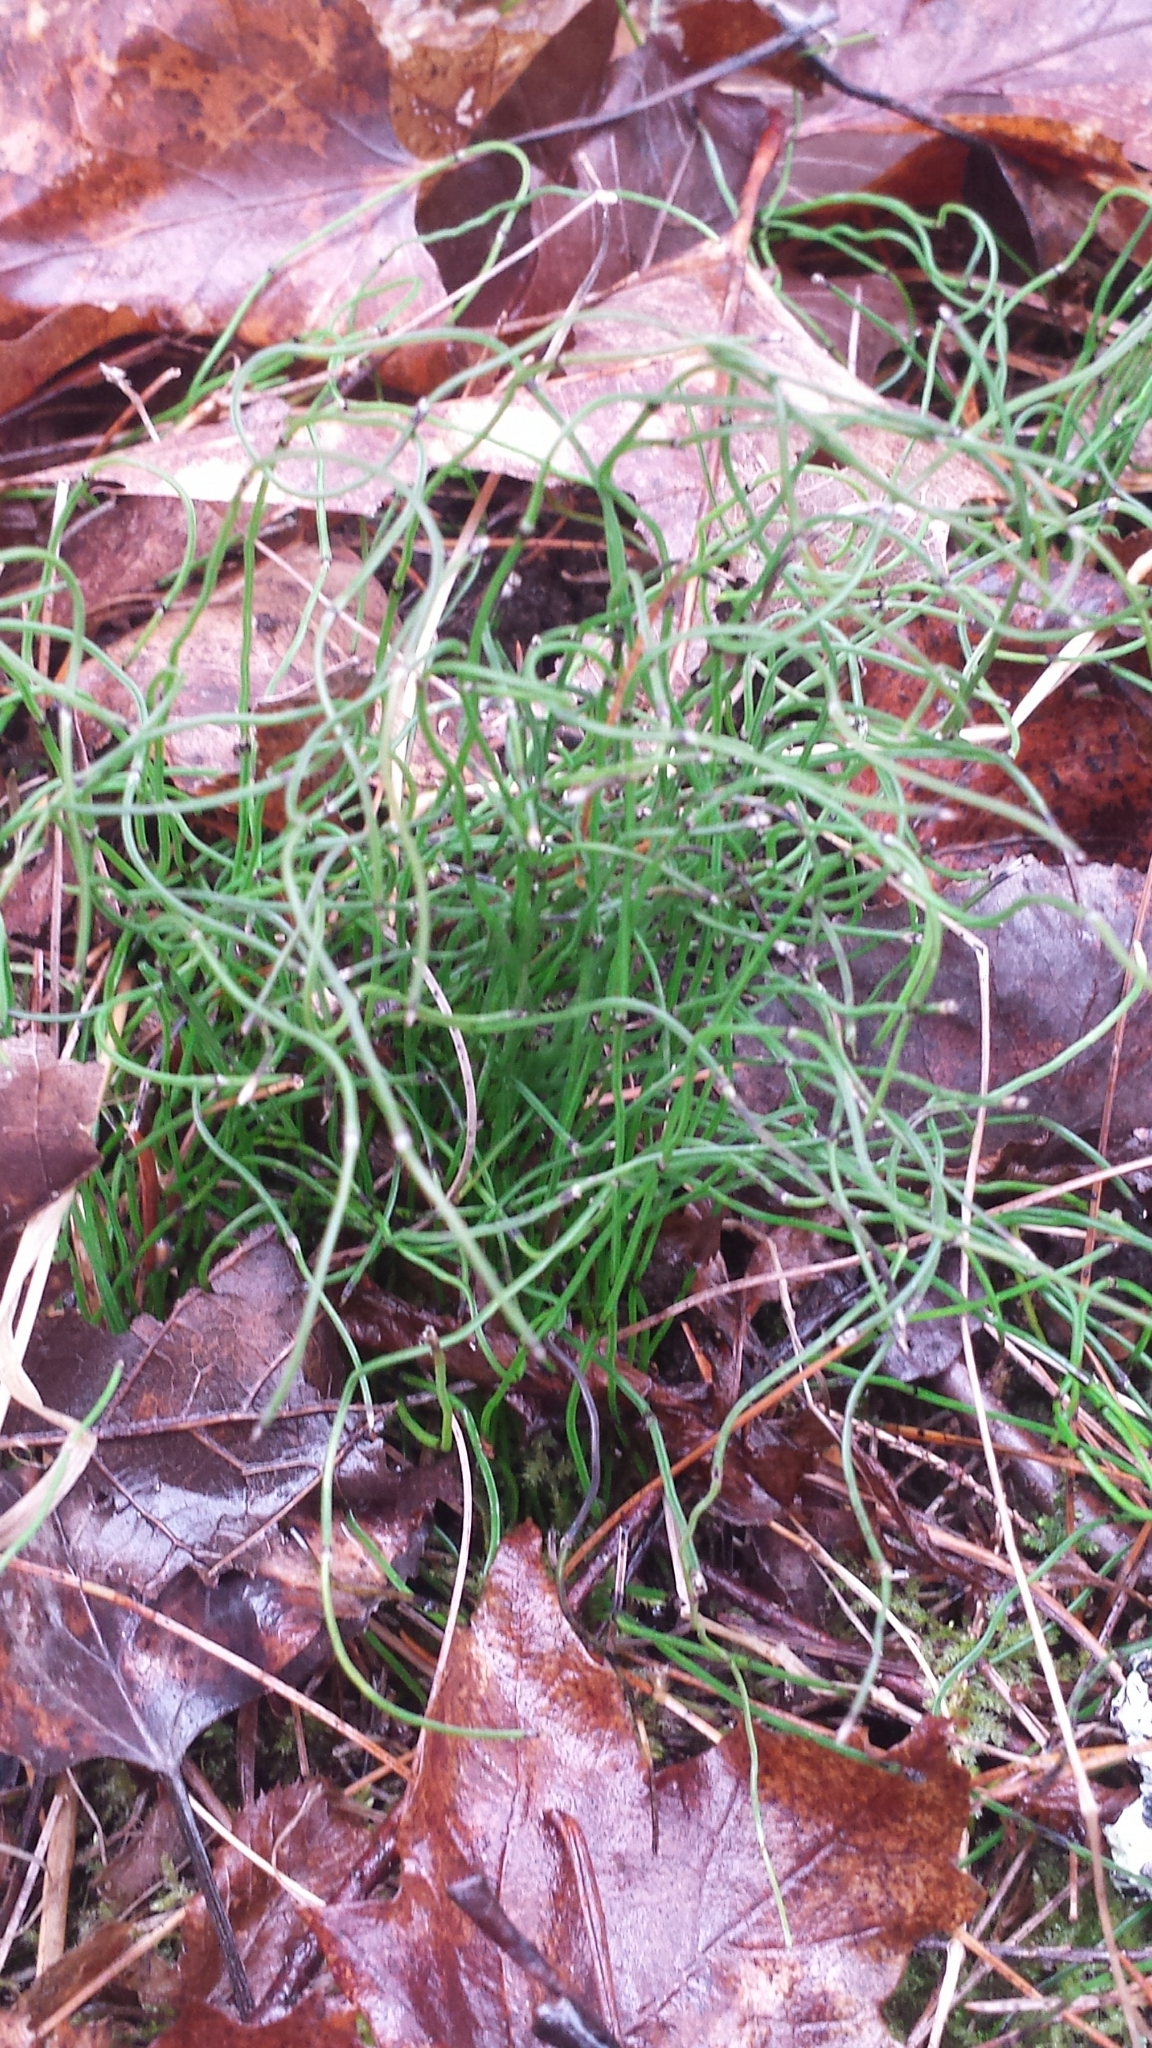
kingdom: Plantae
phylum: Tracheophyta
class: Polypodiopsida
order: Equisetales
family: Equisetaceae
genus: Equisetum
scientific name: Equisetum scirpoides
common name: Delicate horsetail
